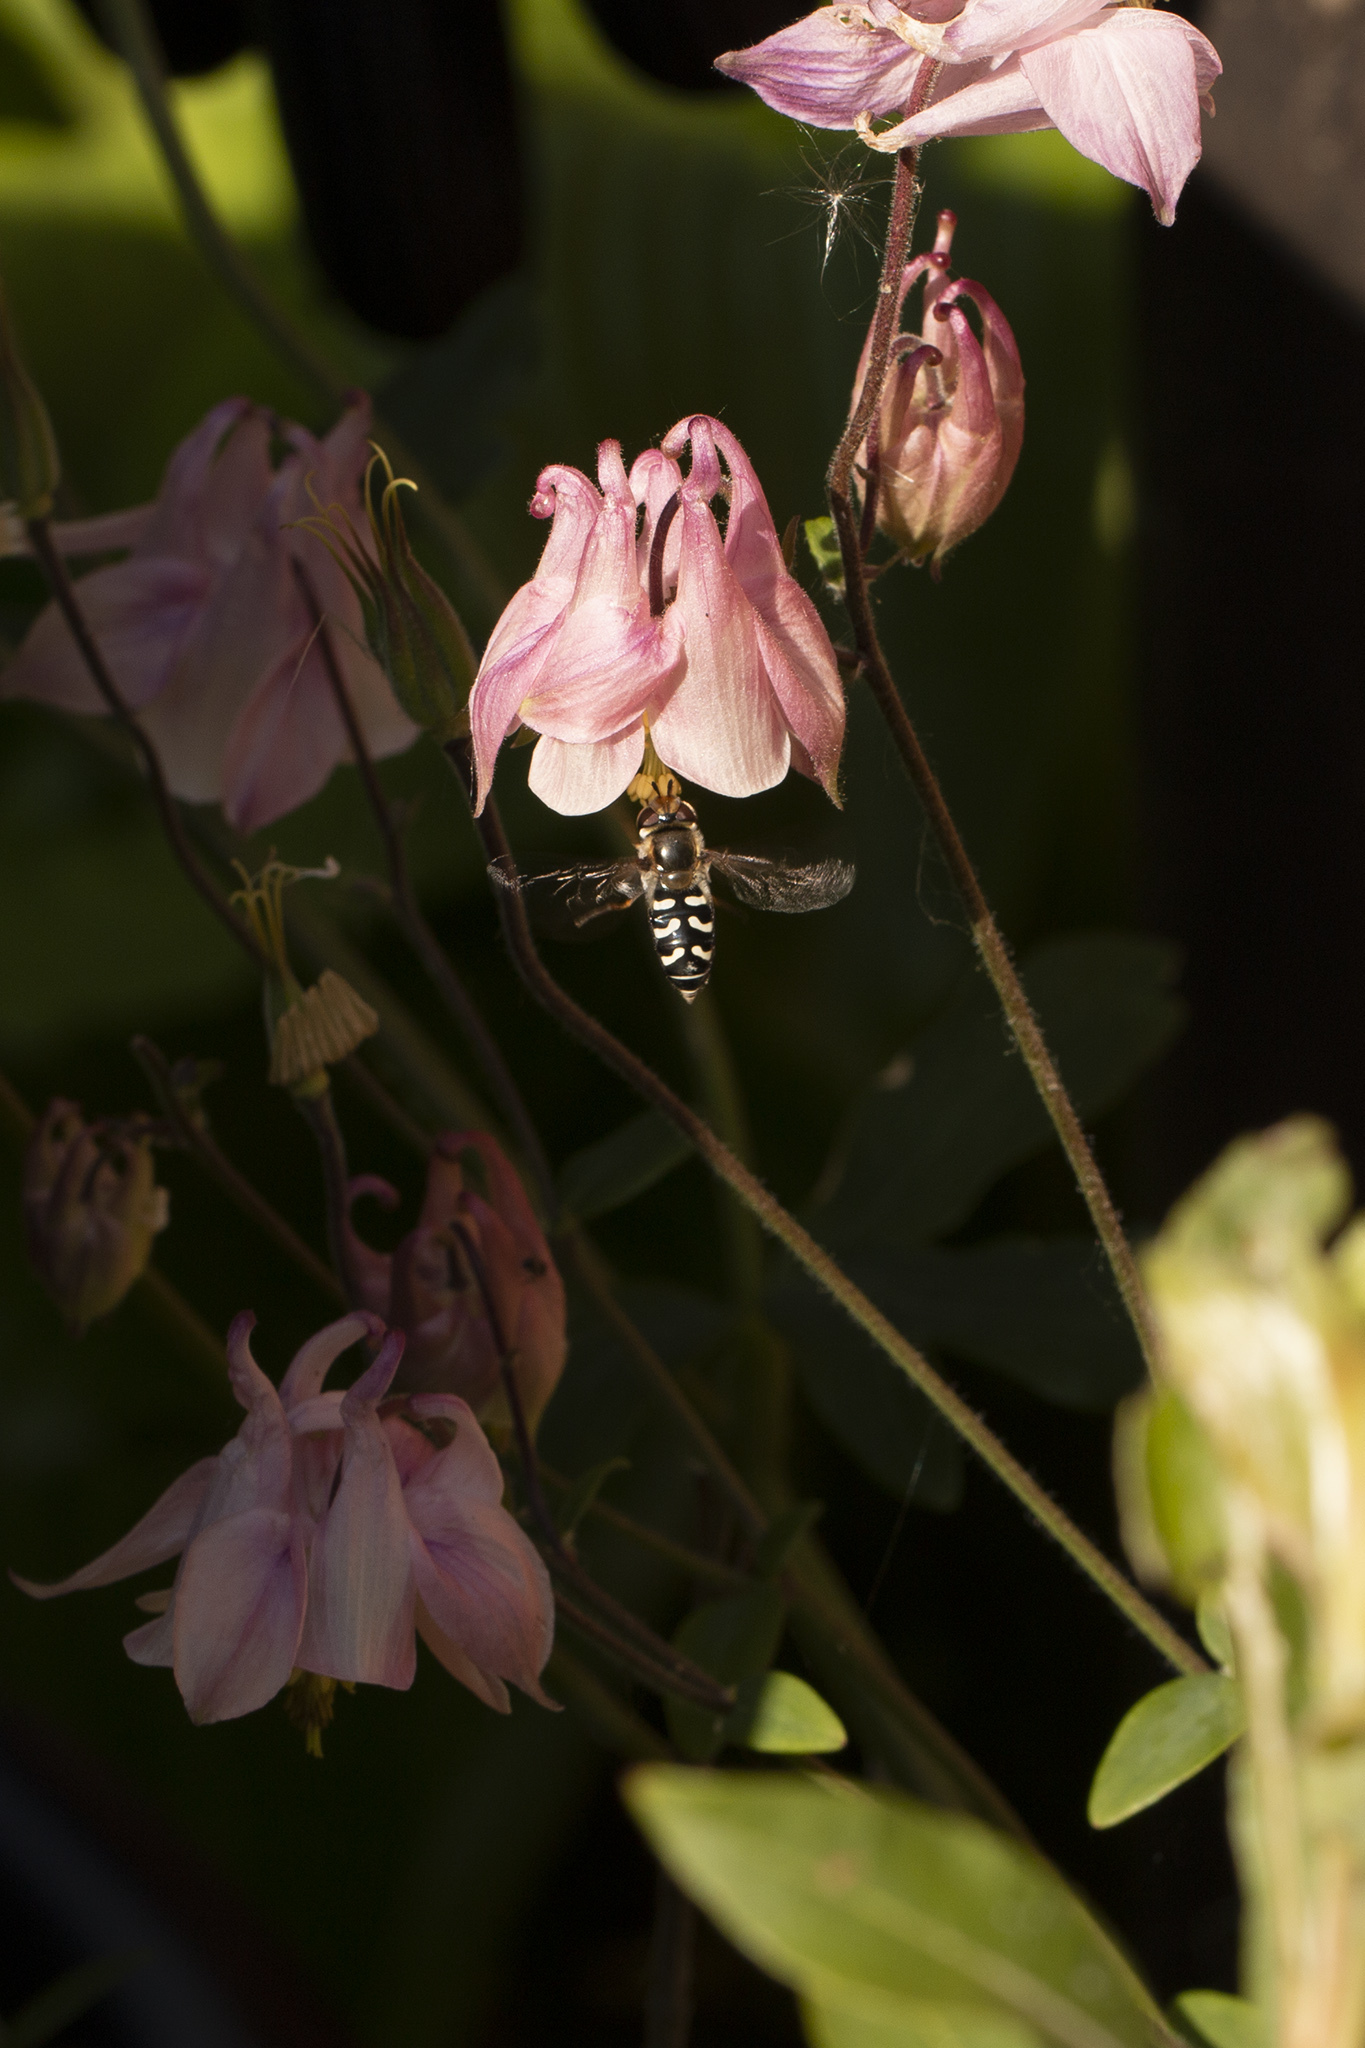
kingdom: Animalia
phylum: Arthropoda
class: Insecta
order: Diptera
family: Syrphidae
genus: Scaeva
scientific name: Scaeva pyrastri
